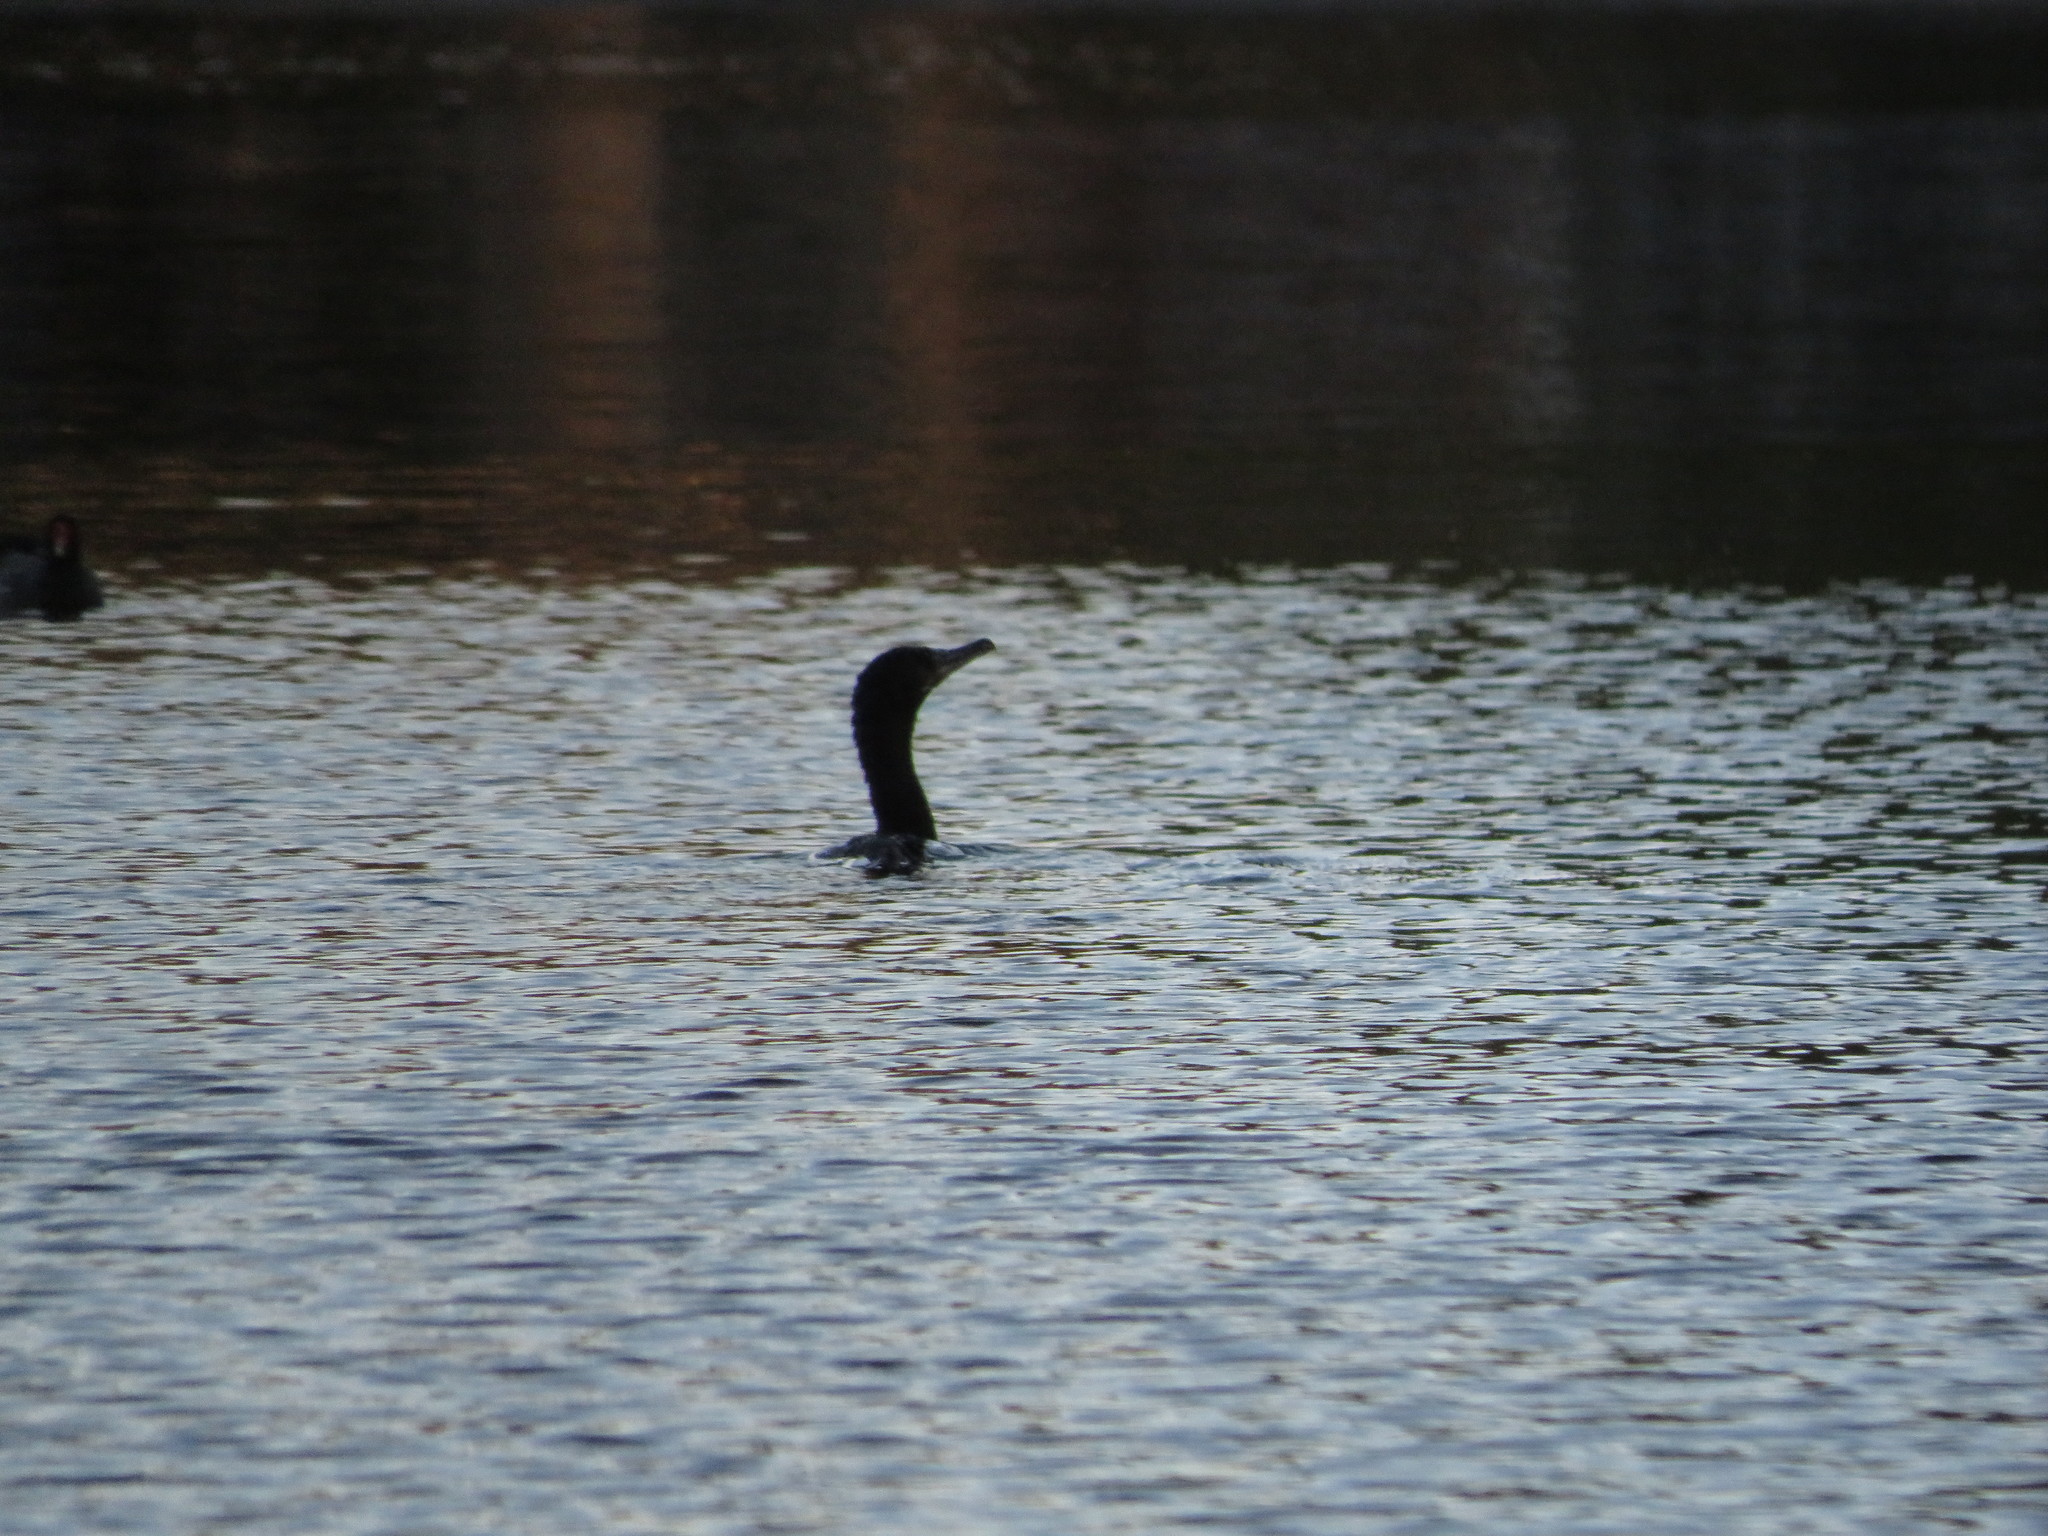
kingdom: Animalia
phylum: Chordata
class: Aves
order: Suliformes
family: Phalacrocoracidae
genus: Phalacrocorax
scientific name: Phalacrocorax brasilianus
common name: Neotropic cormorant
